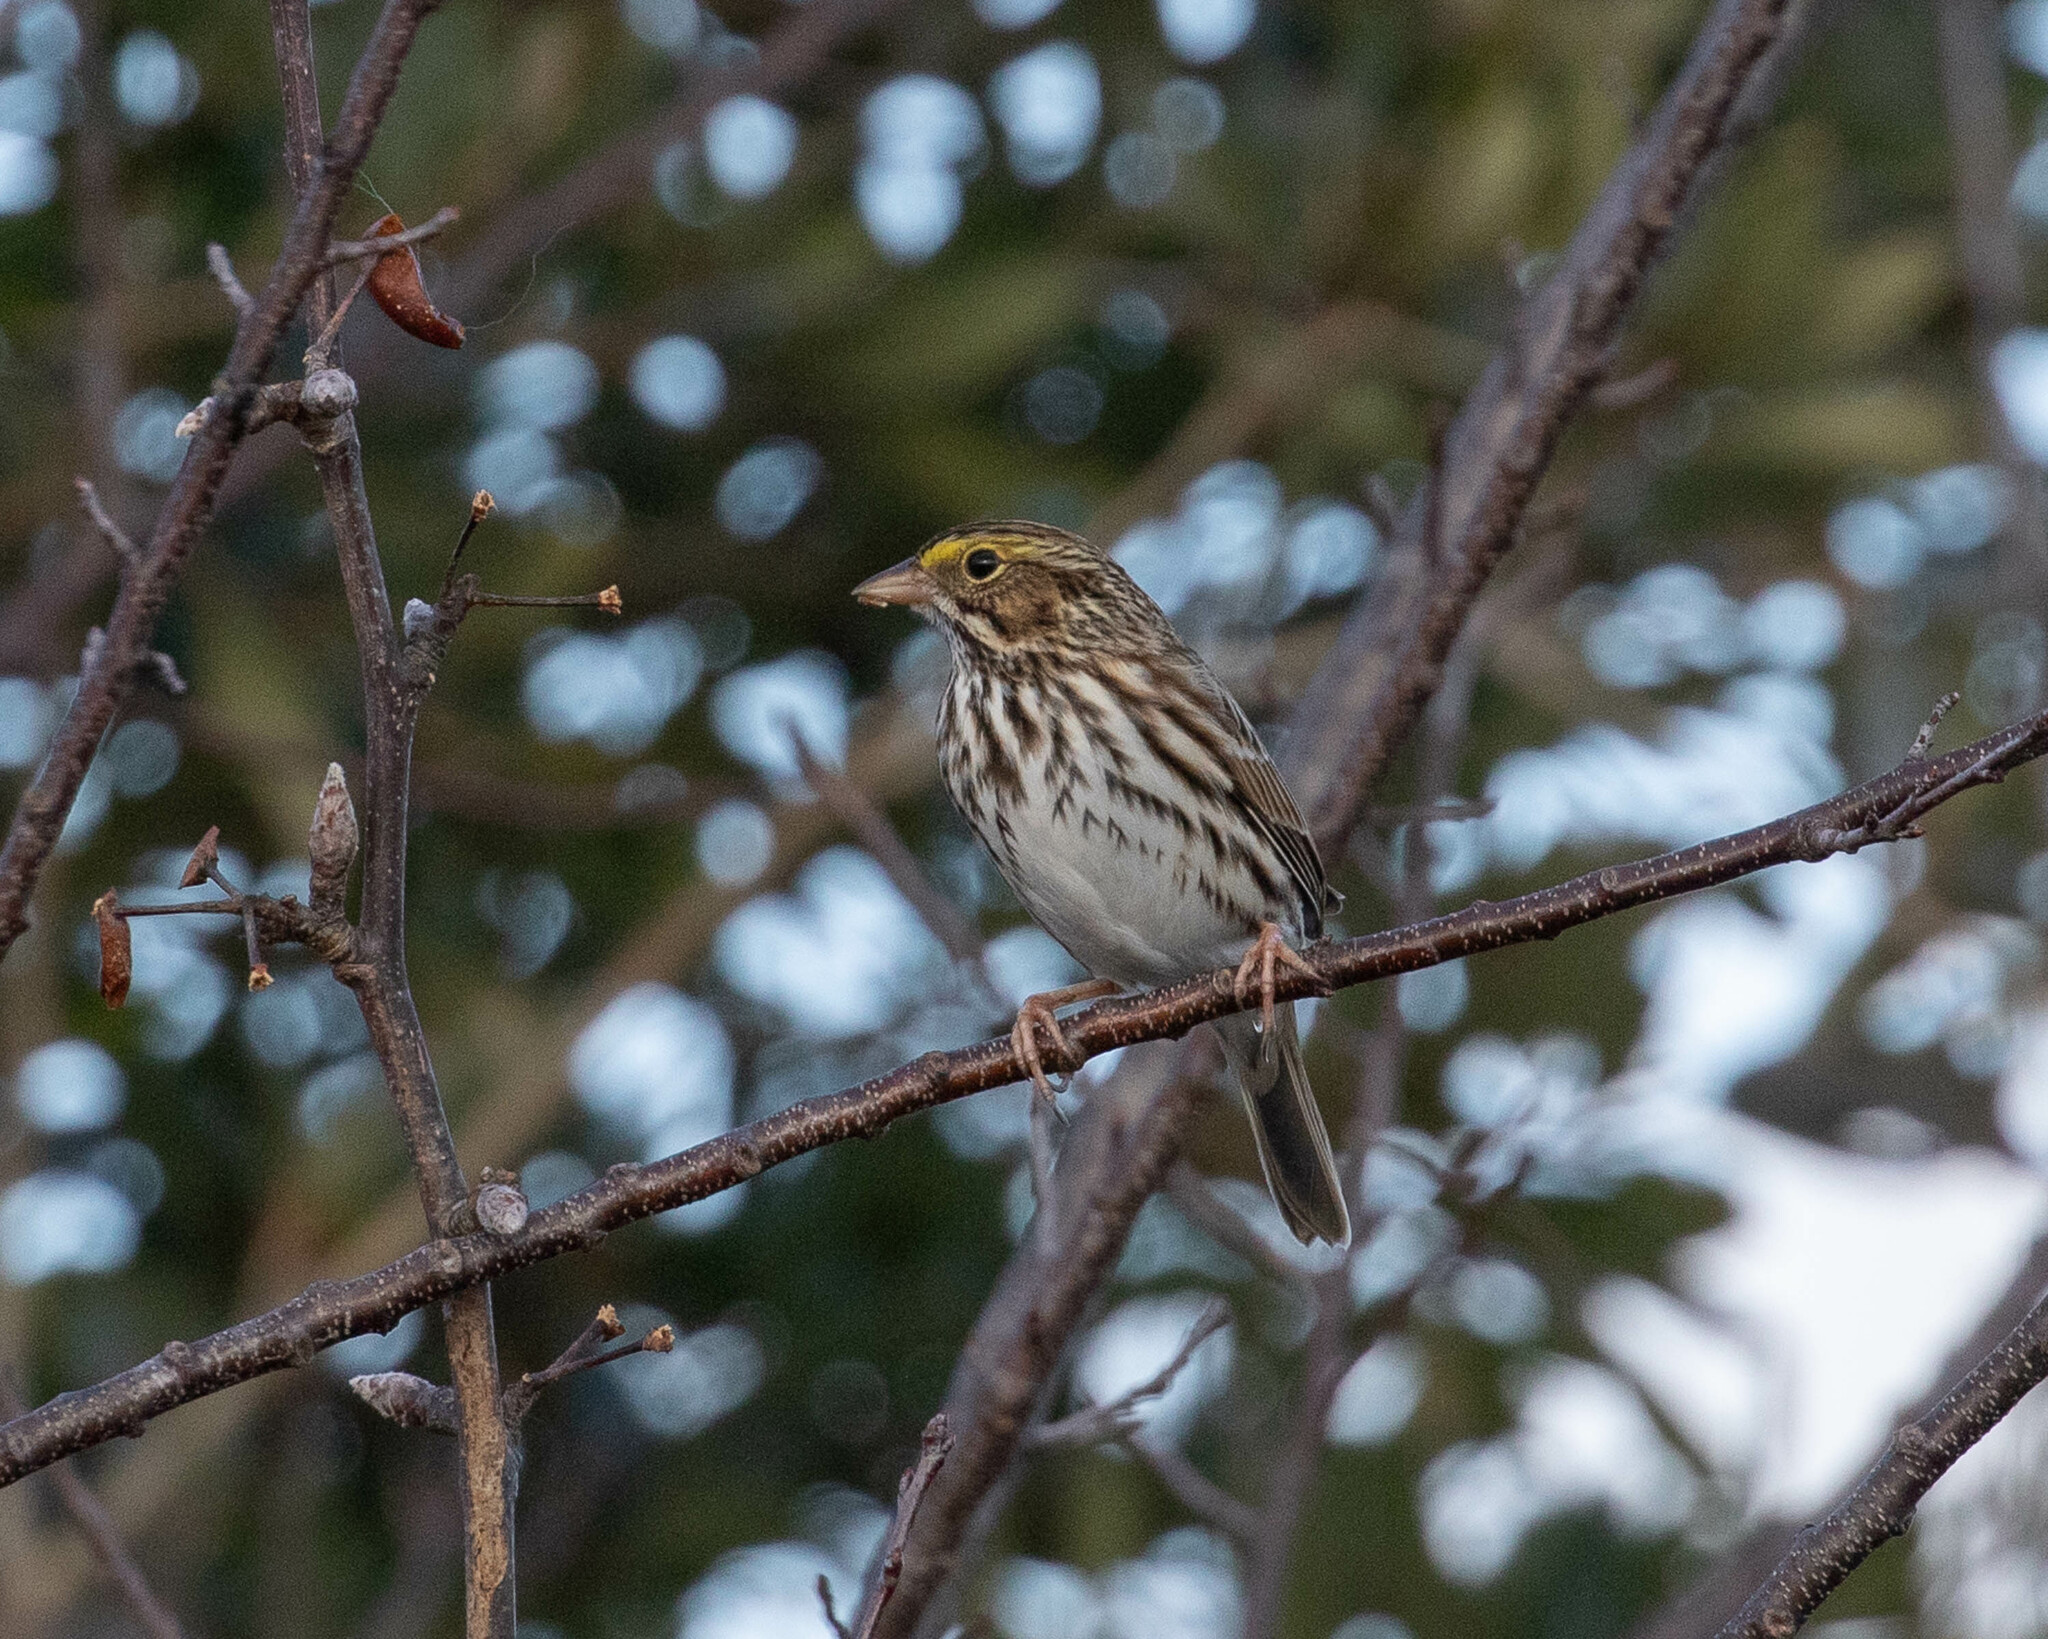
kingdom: Animalia
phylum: Chordata
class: Aves
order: Passeriformes
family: Passerellidae
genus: Passerculus
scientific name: Passerculus sandwichensis
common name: Savannah sparrow
